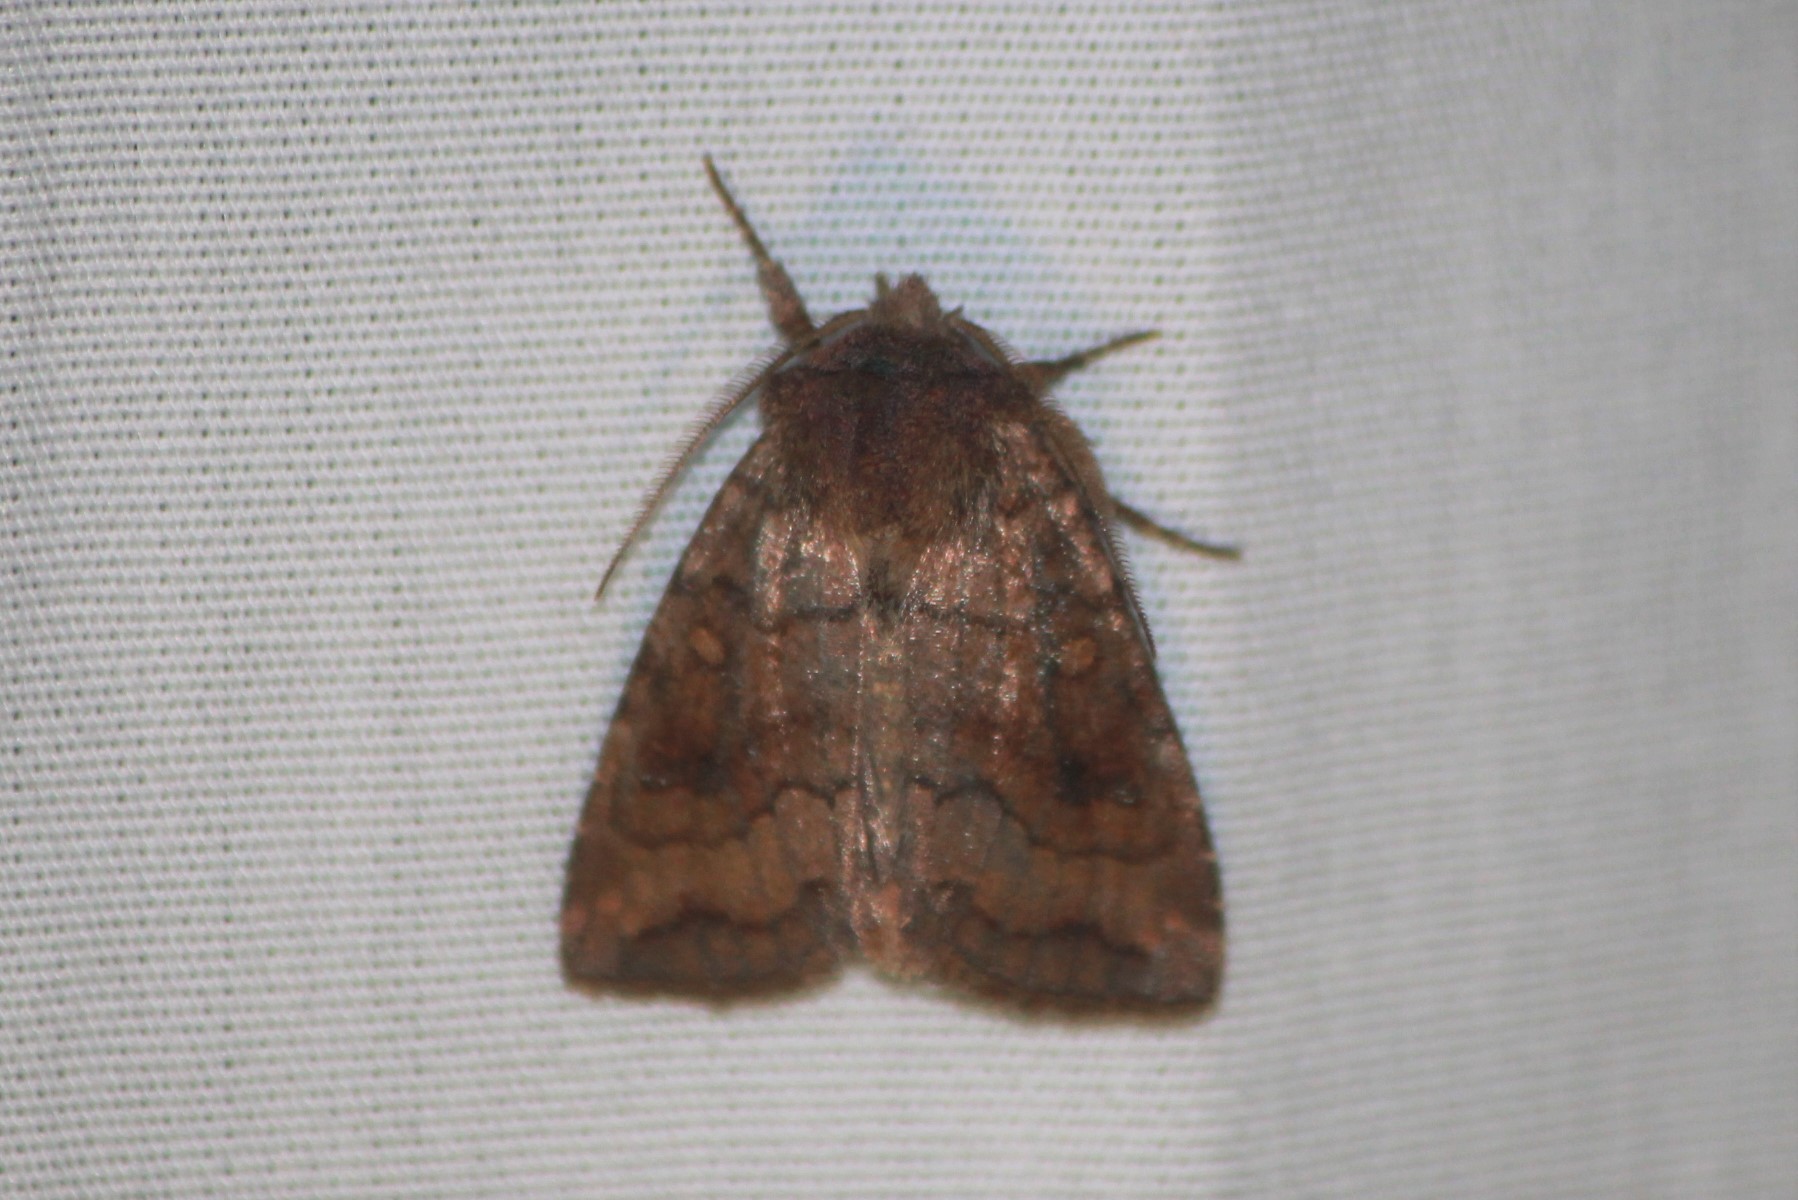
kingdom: Animalia
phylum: Arthropoda
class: Insecta
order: Lepidoptera
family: Noctuidae
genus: Tricholita
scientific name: Tricholita signata
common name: Signate quaker
